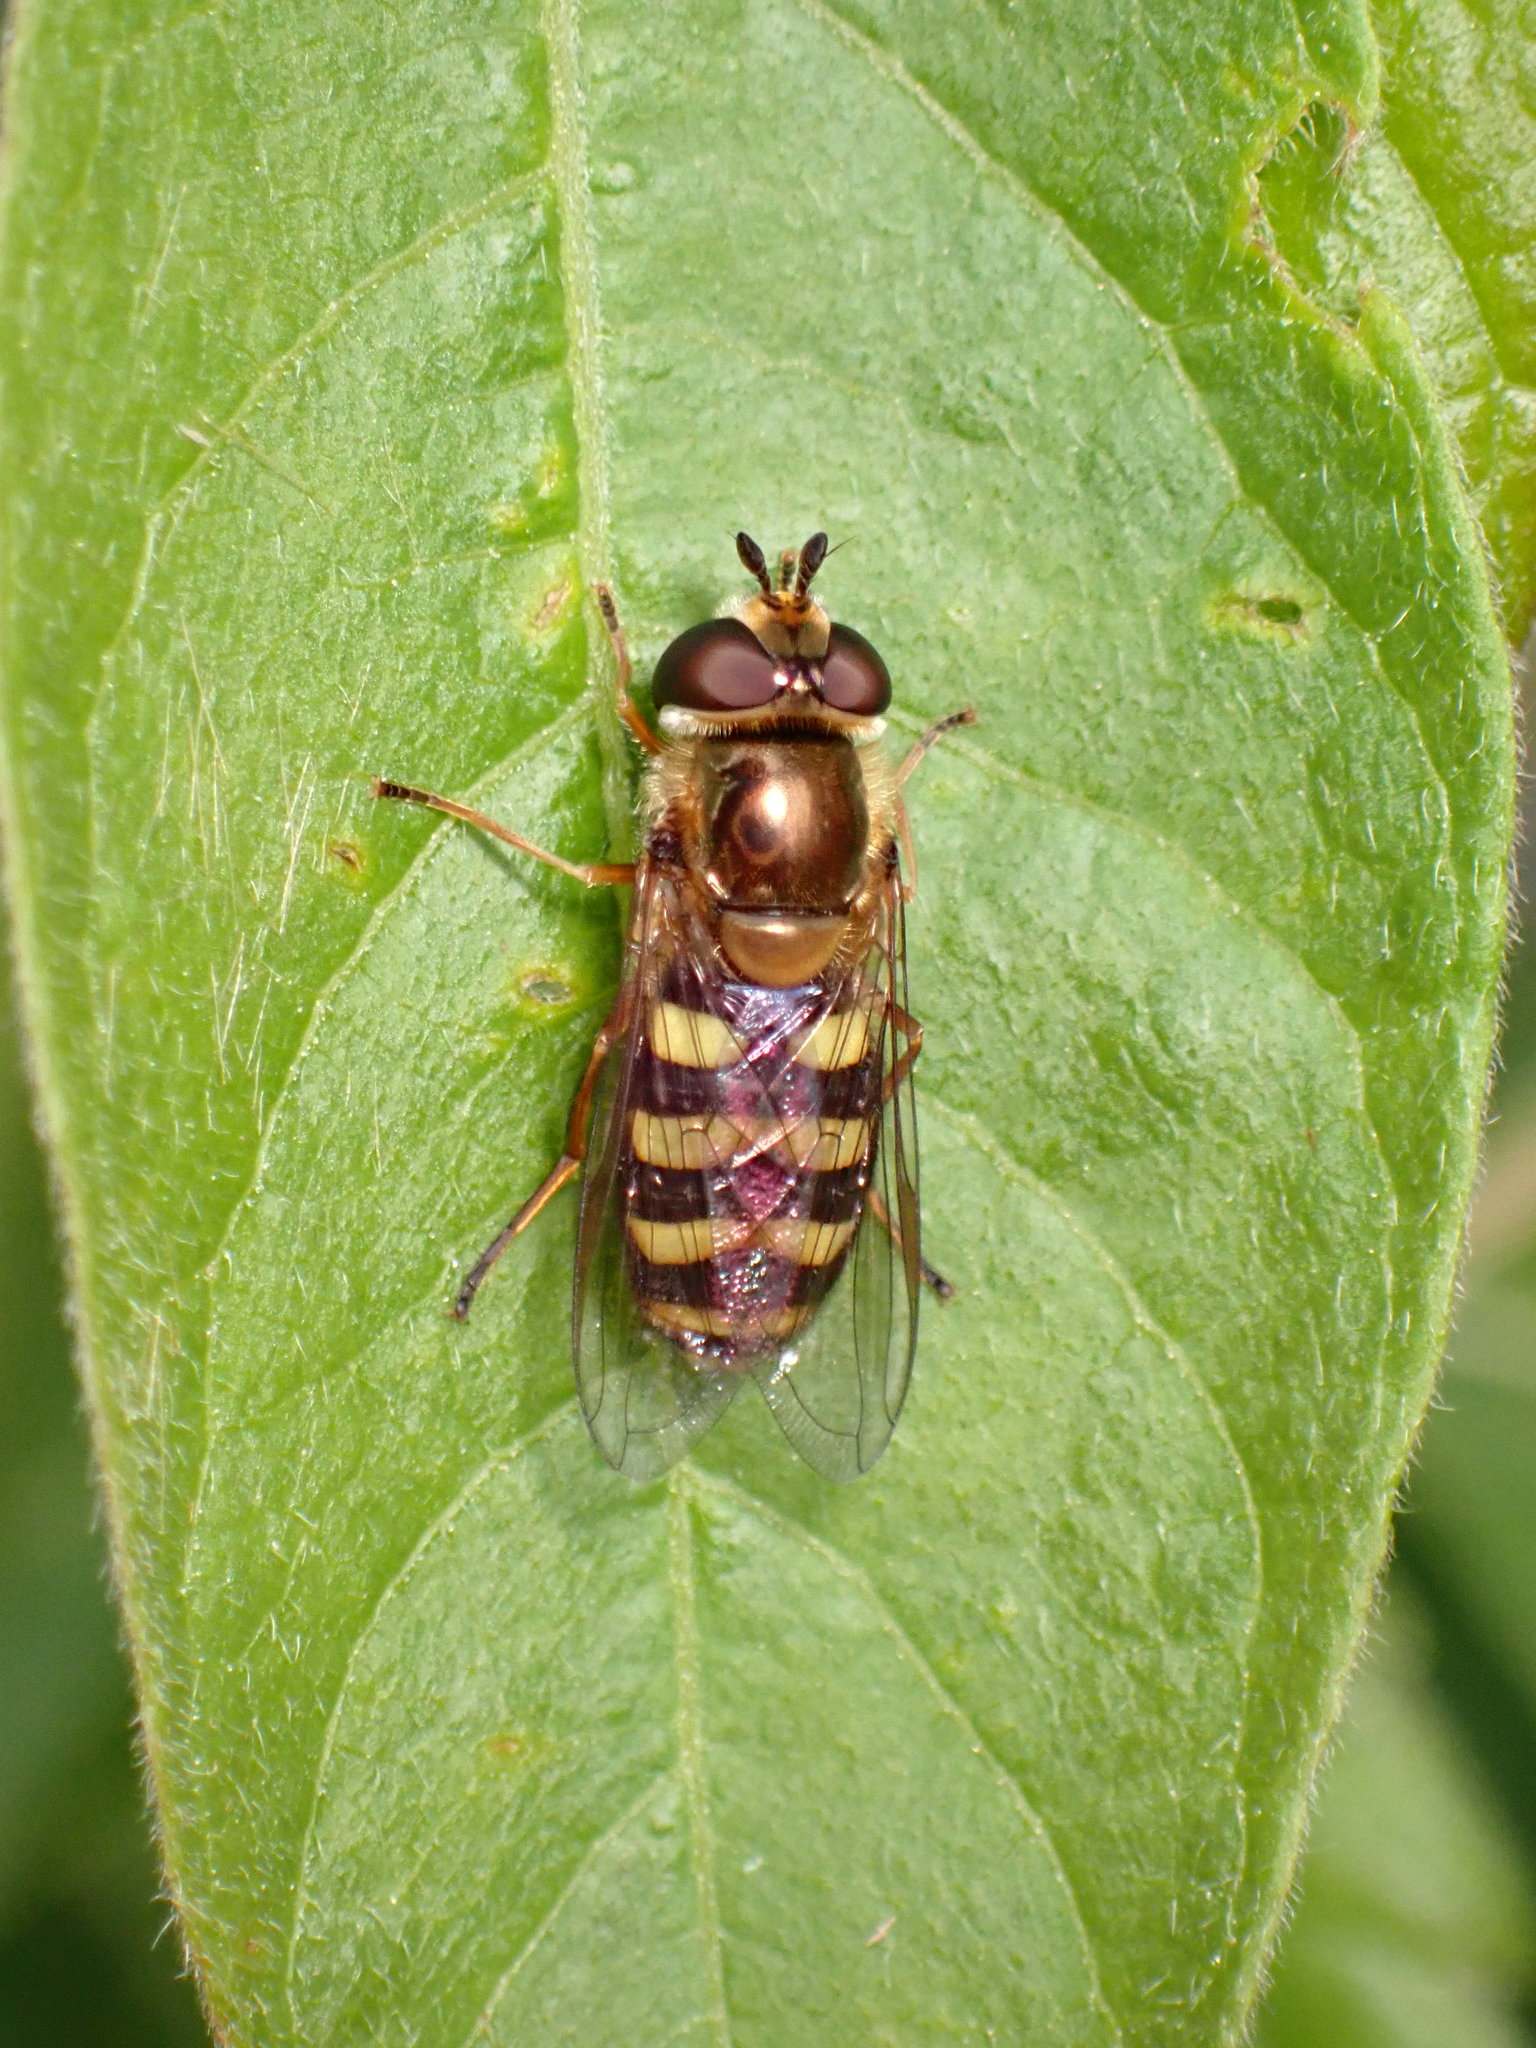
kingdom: Animalia
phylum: Arthropoda
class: Insecta
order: Diptera
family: Syrphidae
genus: Eupeodes
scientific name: Eupeodes fumipennis
